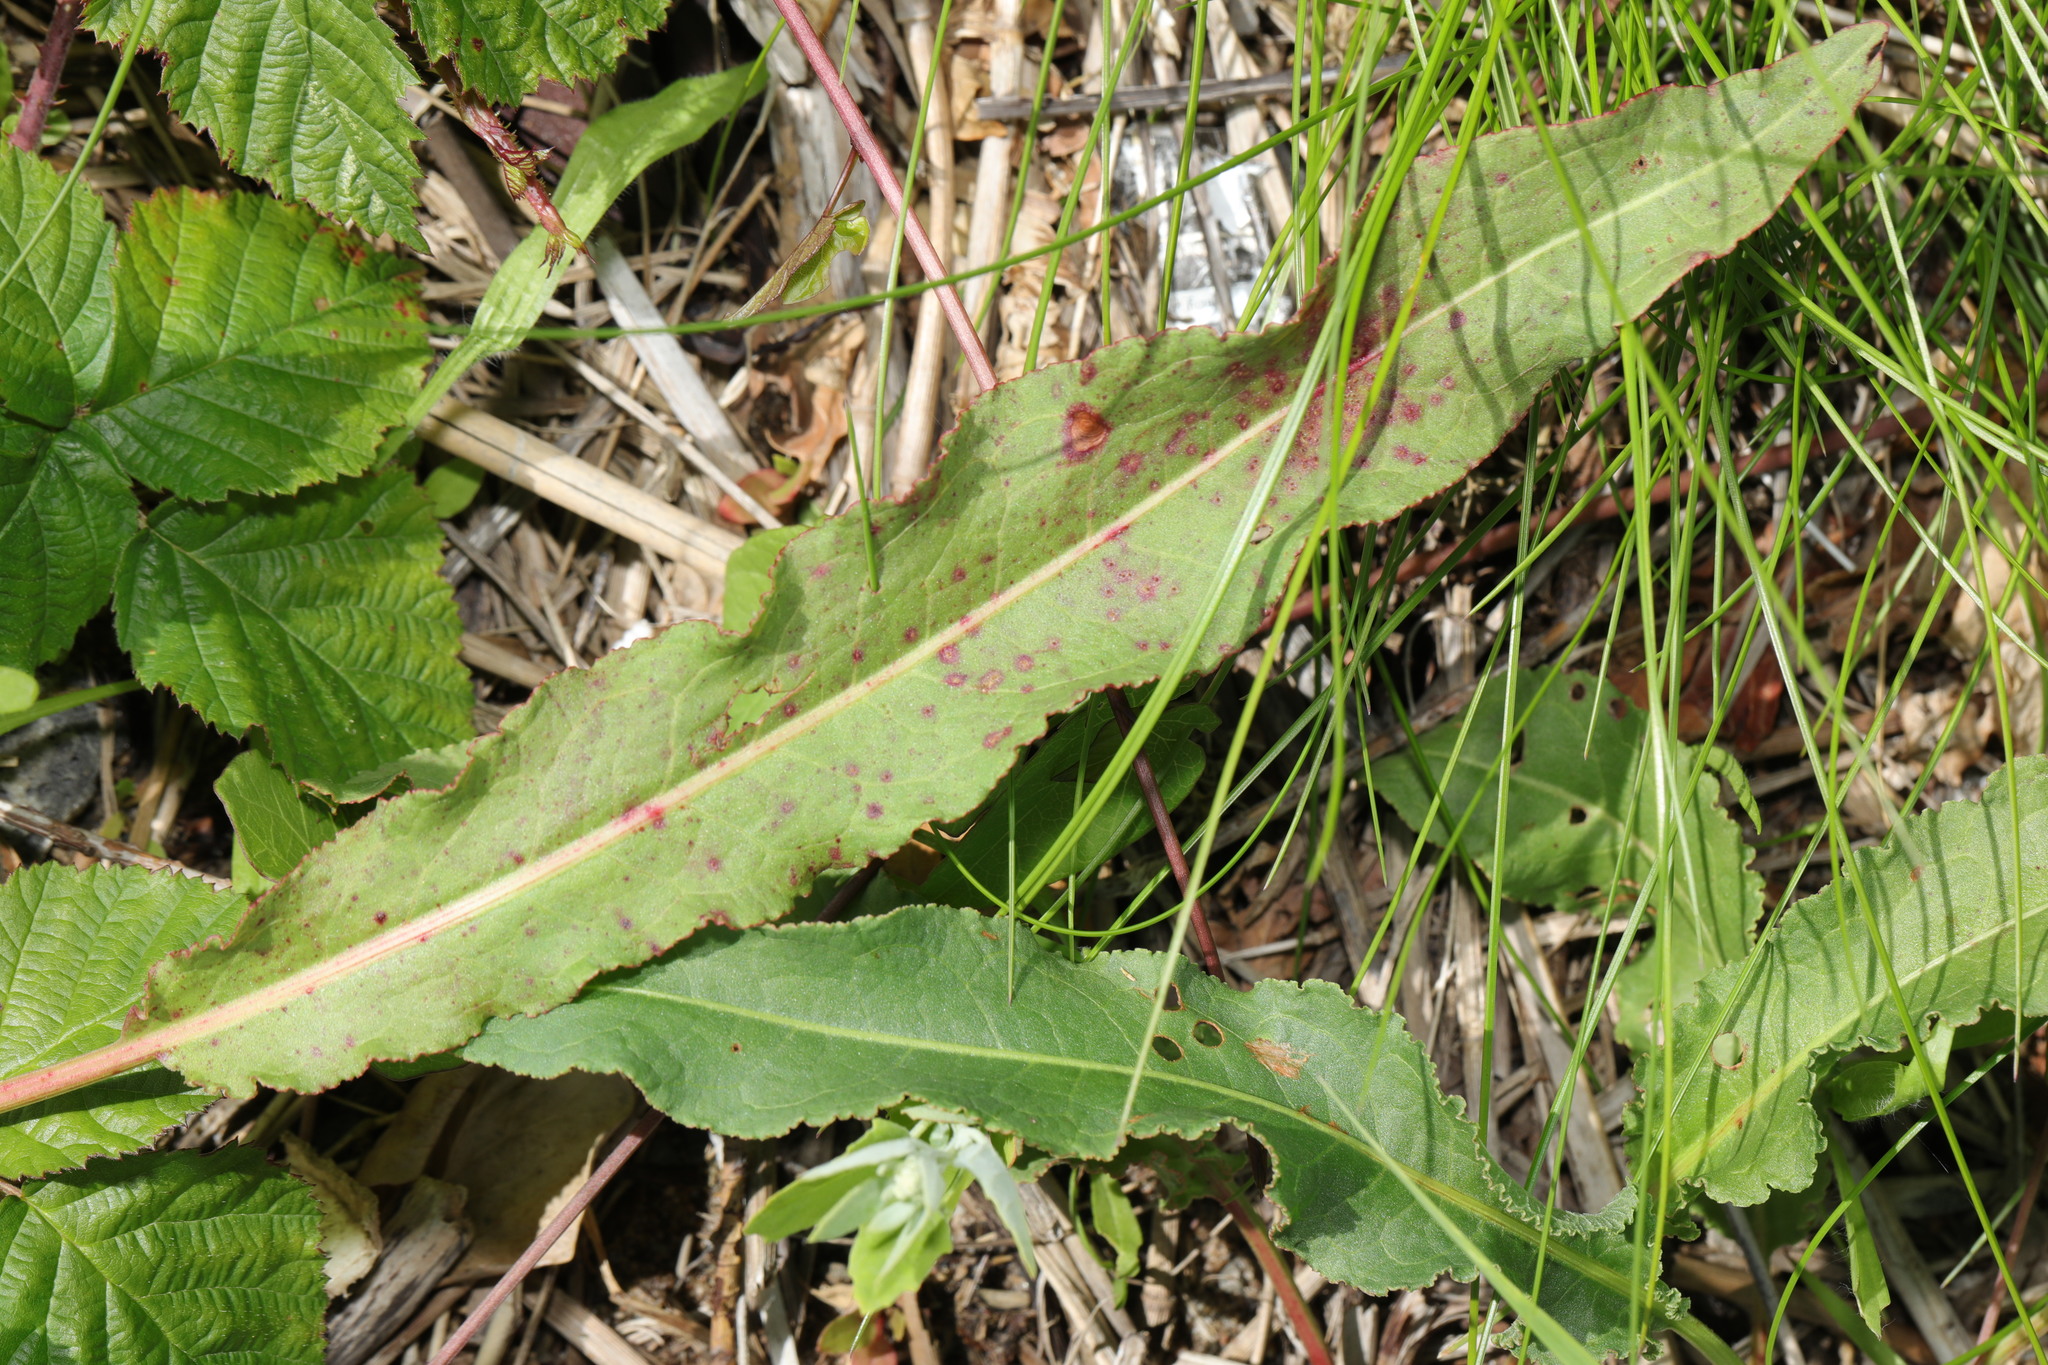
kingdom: Plantae
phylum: Tracheophyta
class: Magnoliopsida
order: Caryophyllales
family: Polygonaceae
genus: Rumex
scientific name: Rumex crispus
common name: Curled dock
